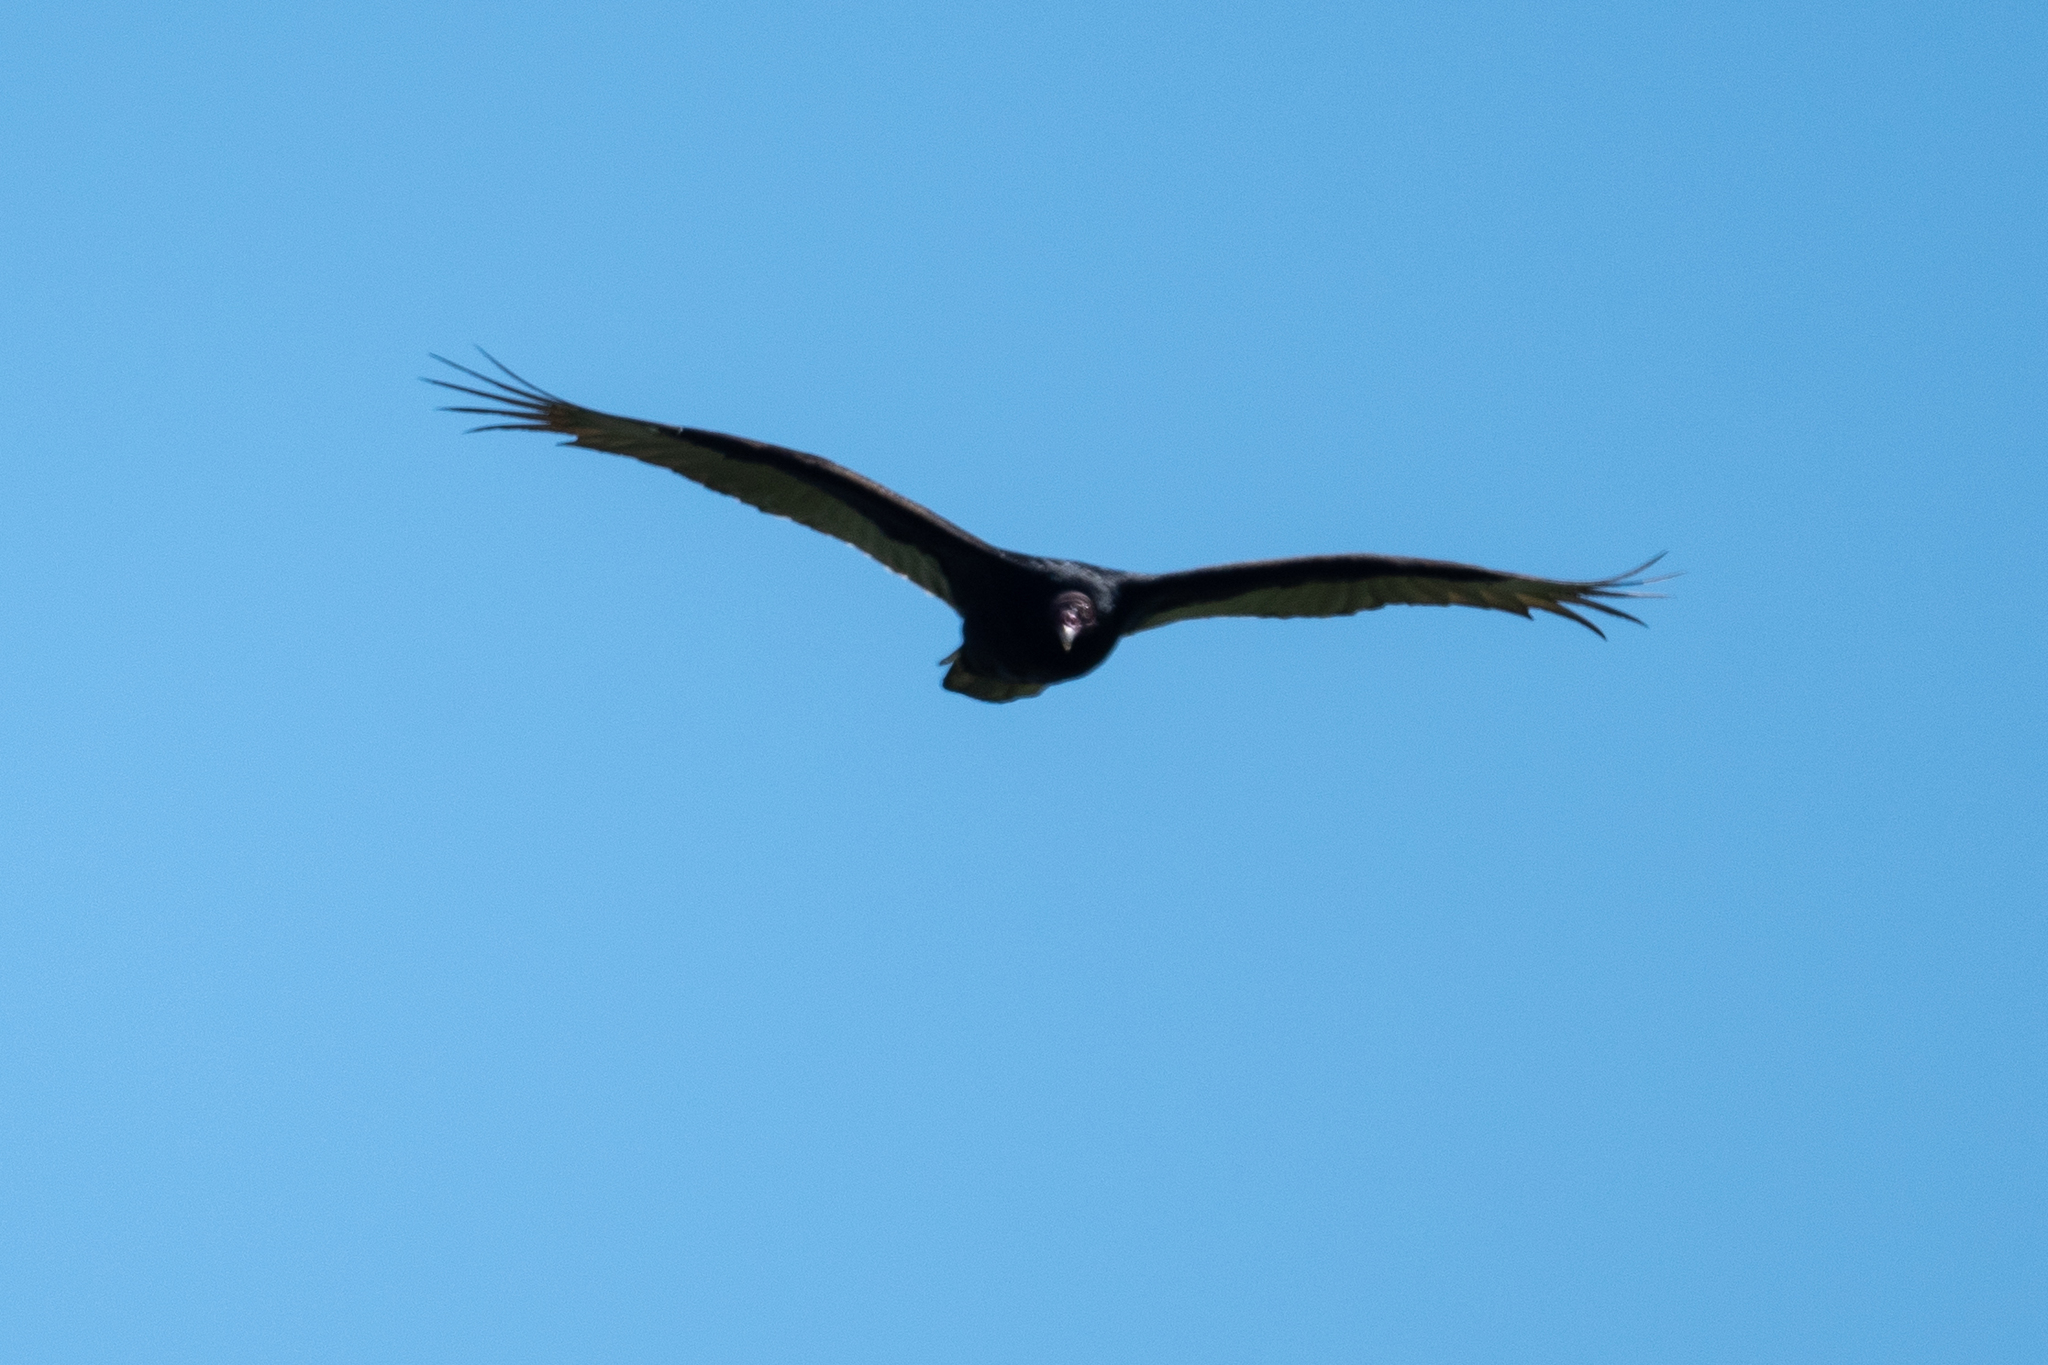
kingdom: Animalia
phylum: Chordata
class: Aves
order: Accipitriformes
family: Cathartidae
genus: Cathartes
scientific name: Cathartes aura
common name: Turkey vulture
